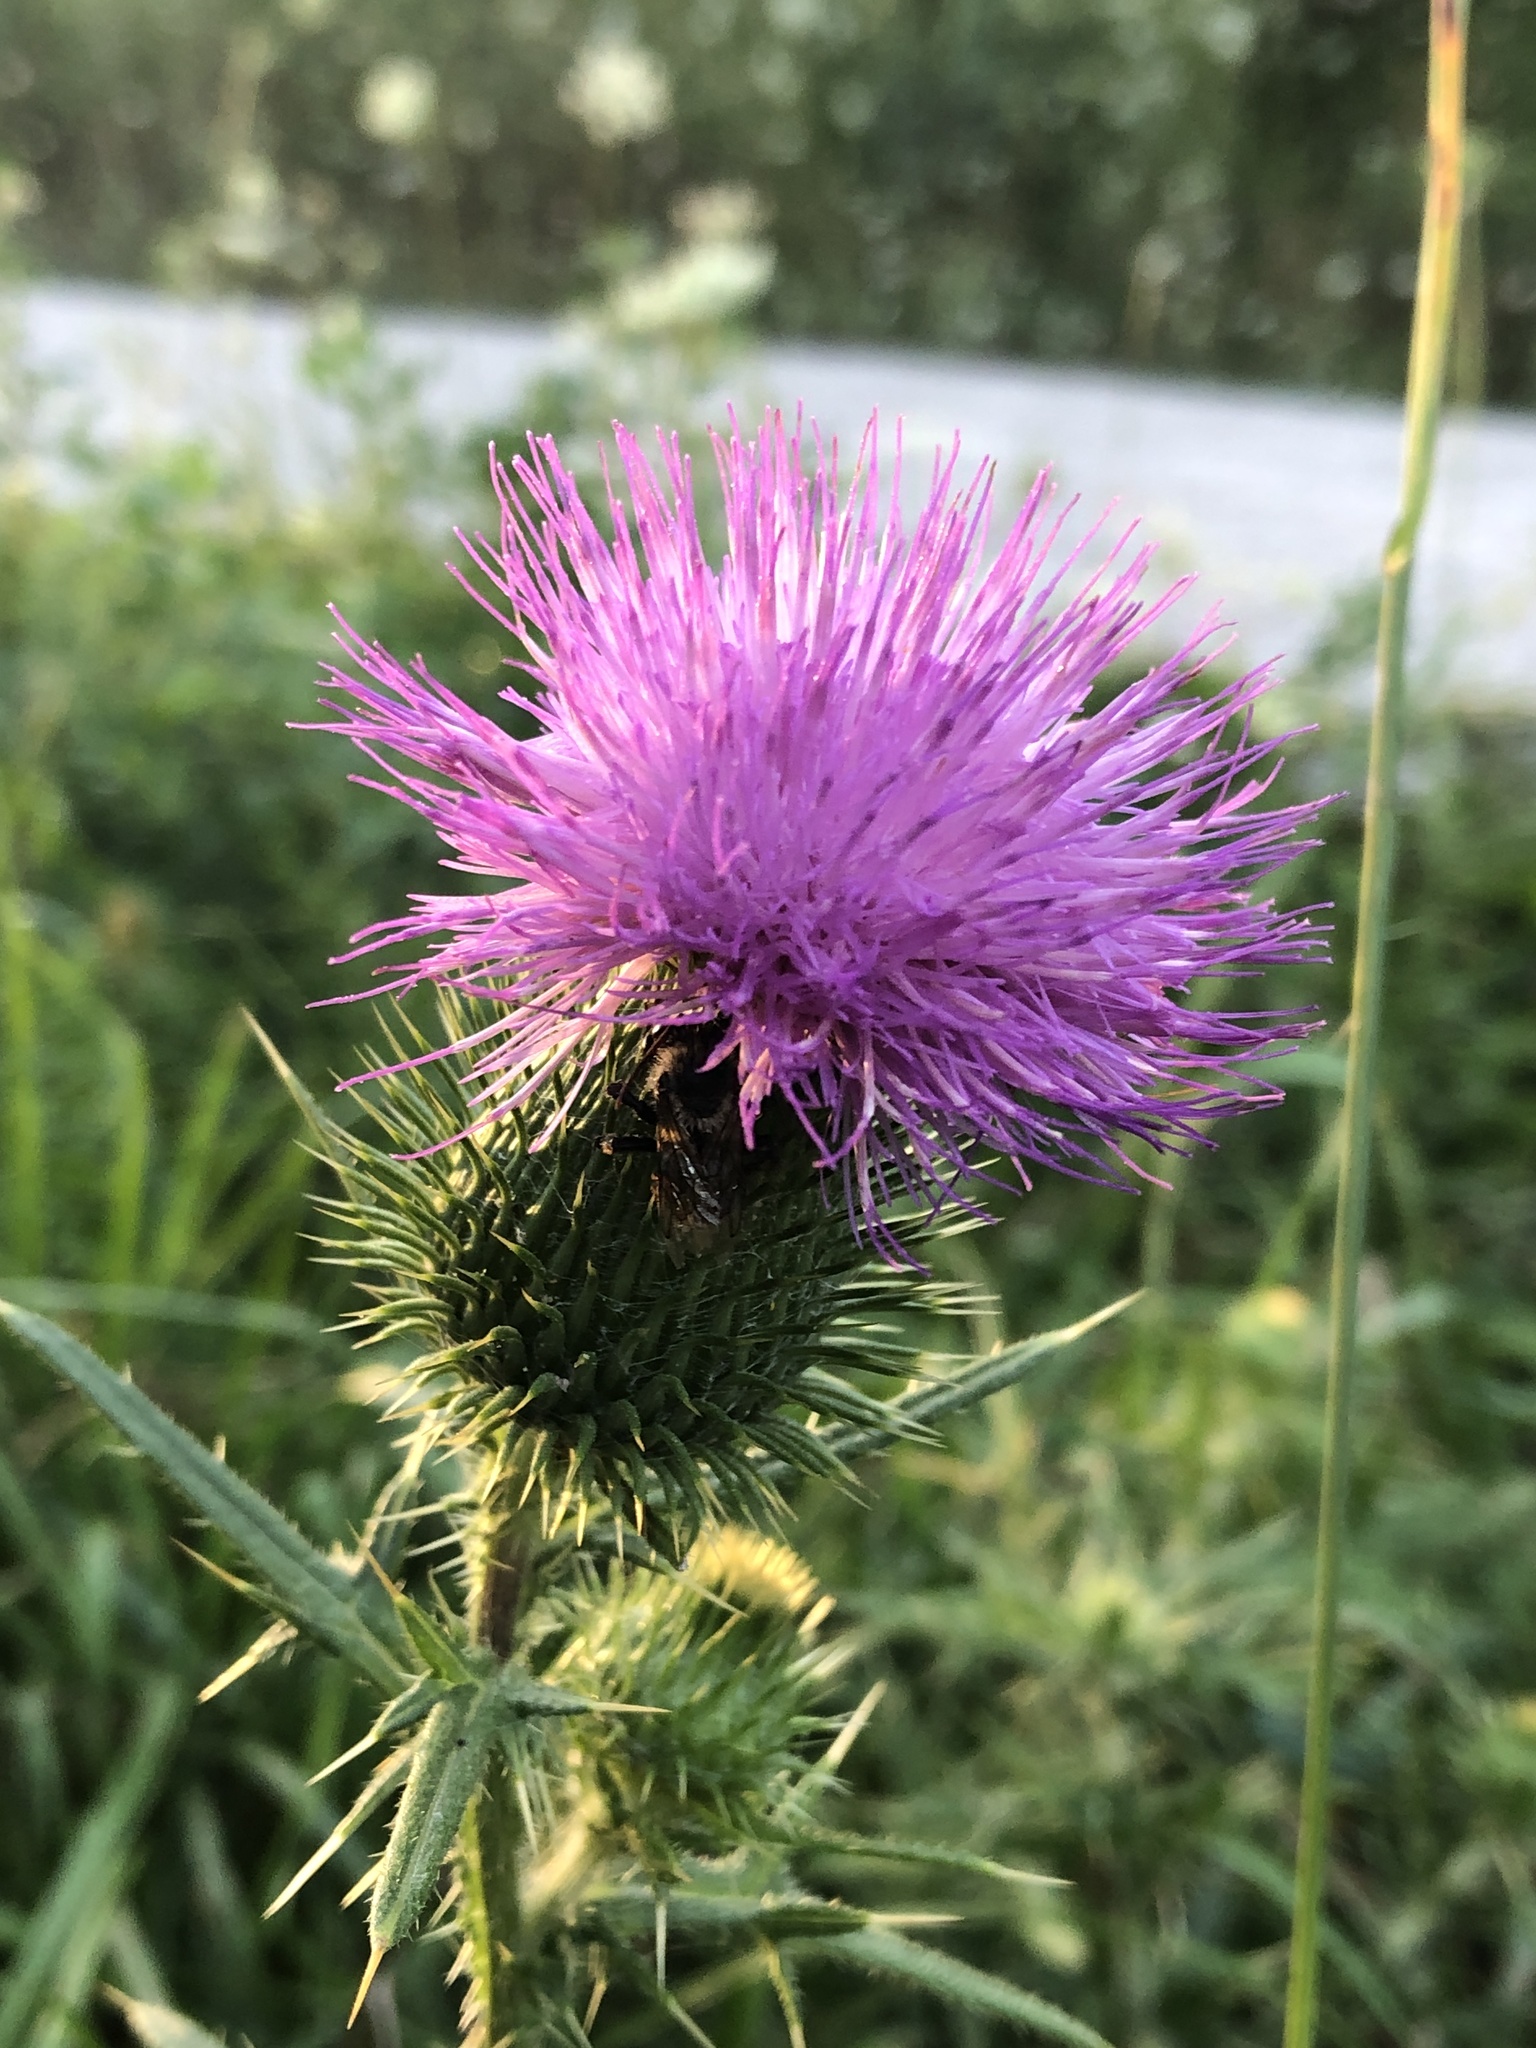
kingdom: Plantae
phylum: Tracheophyta
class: Magnoliopsida
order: Asterales
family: Asteraceae
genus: Cirsium
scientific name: Cirsium vulgare
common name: Bull thistle
